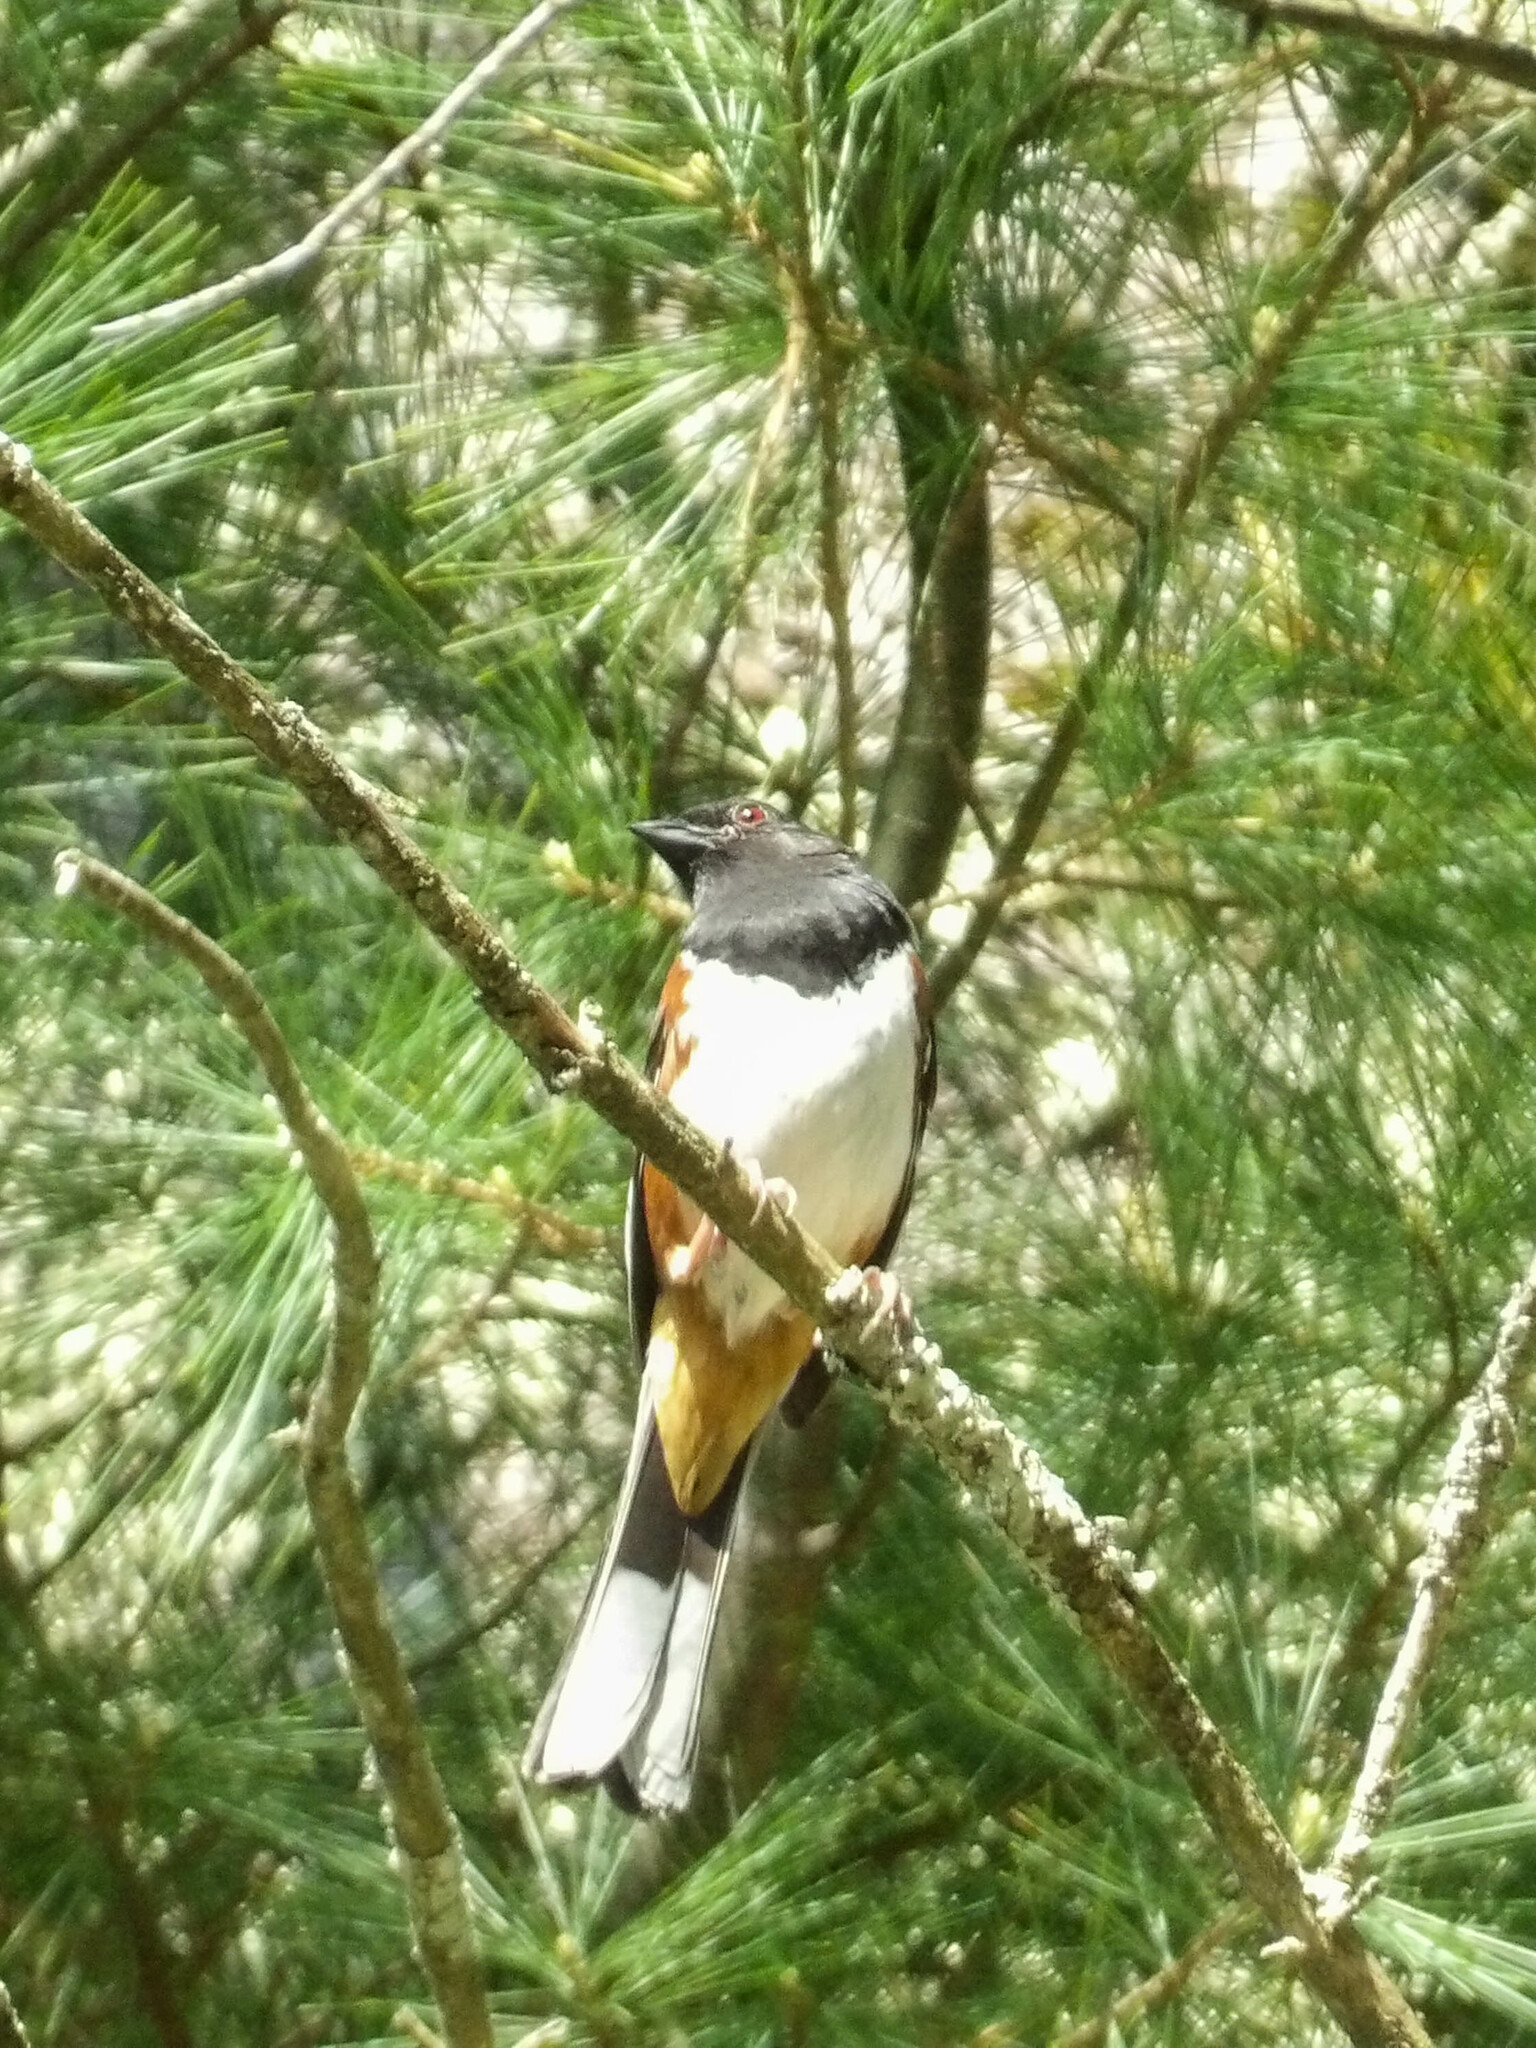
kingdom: Animalia
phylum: Chordata
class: Aves
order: Passeriformes
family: Passerellidae
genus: Pipilo
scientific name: Pipilo erythrophthalmus
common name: Eastern towhee
